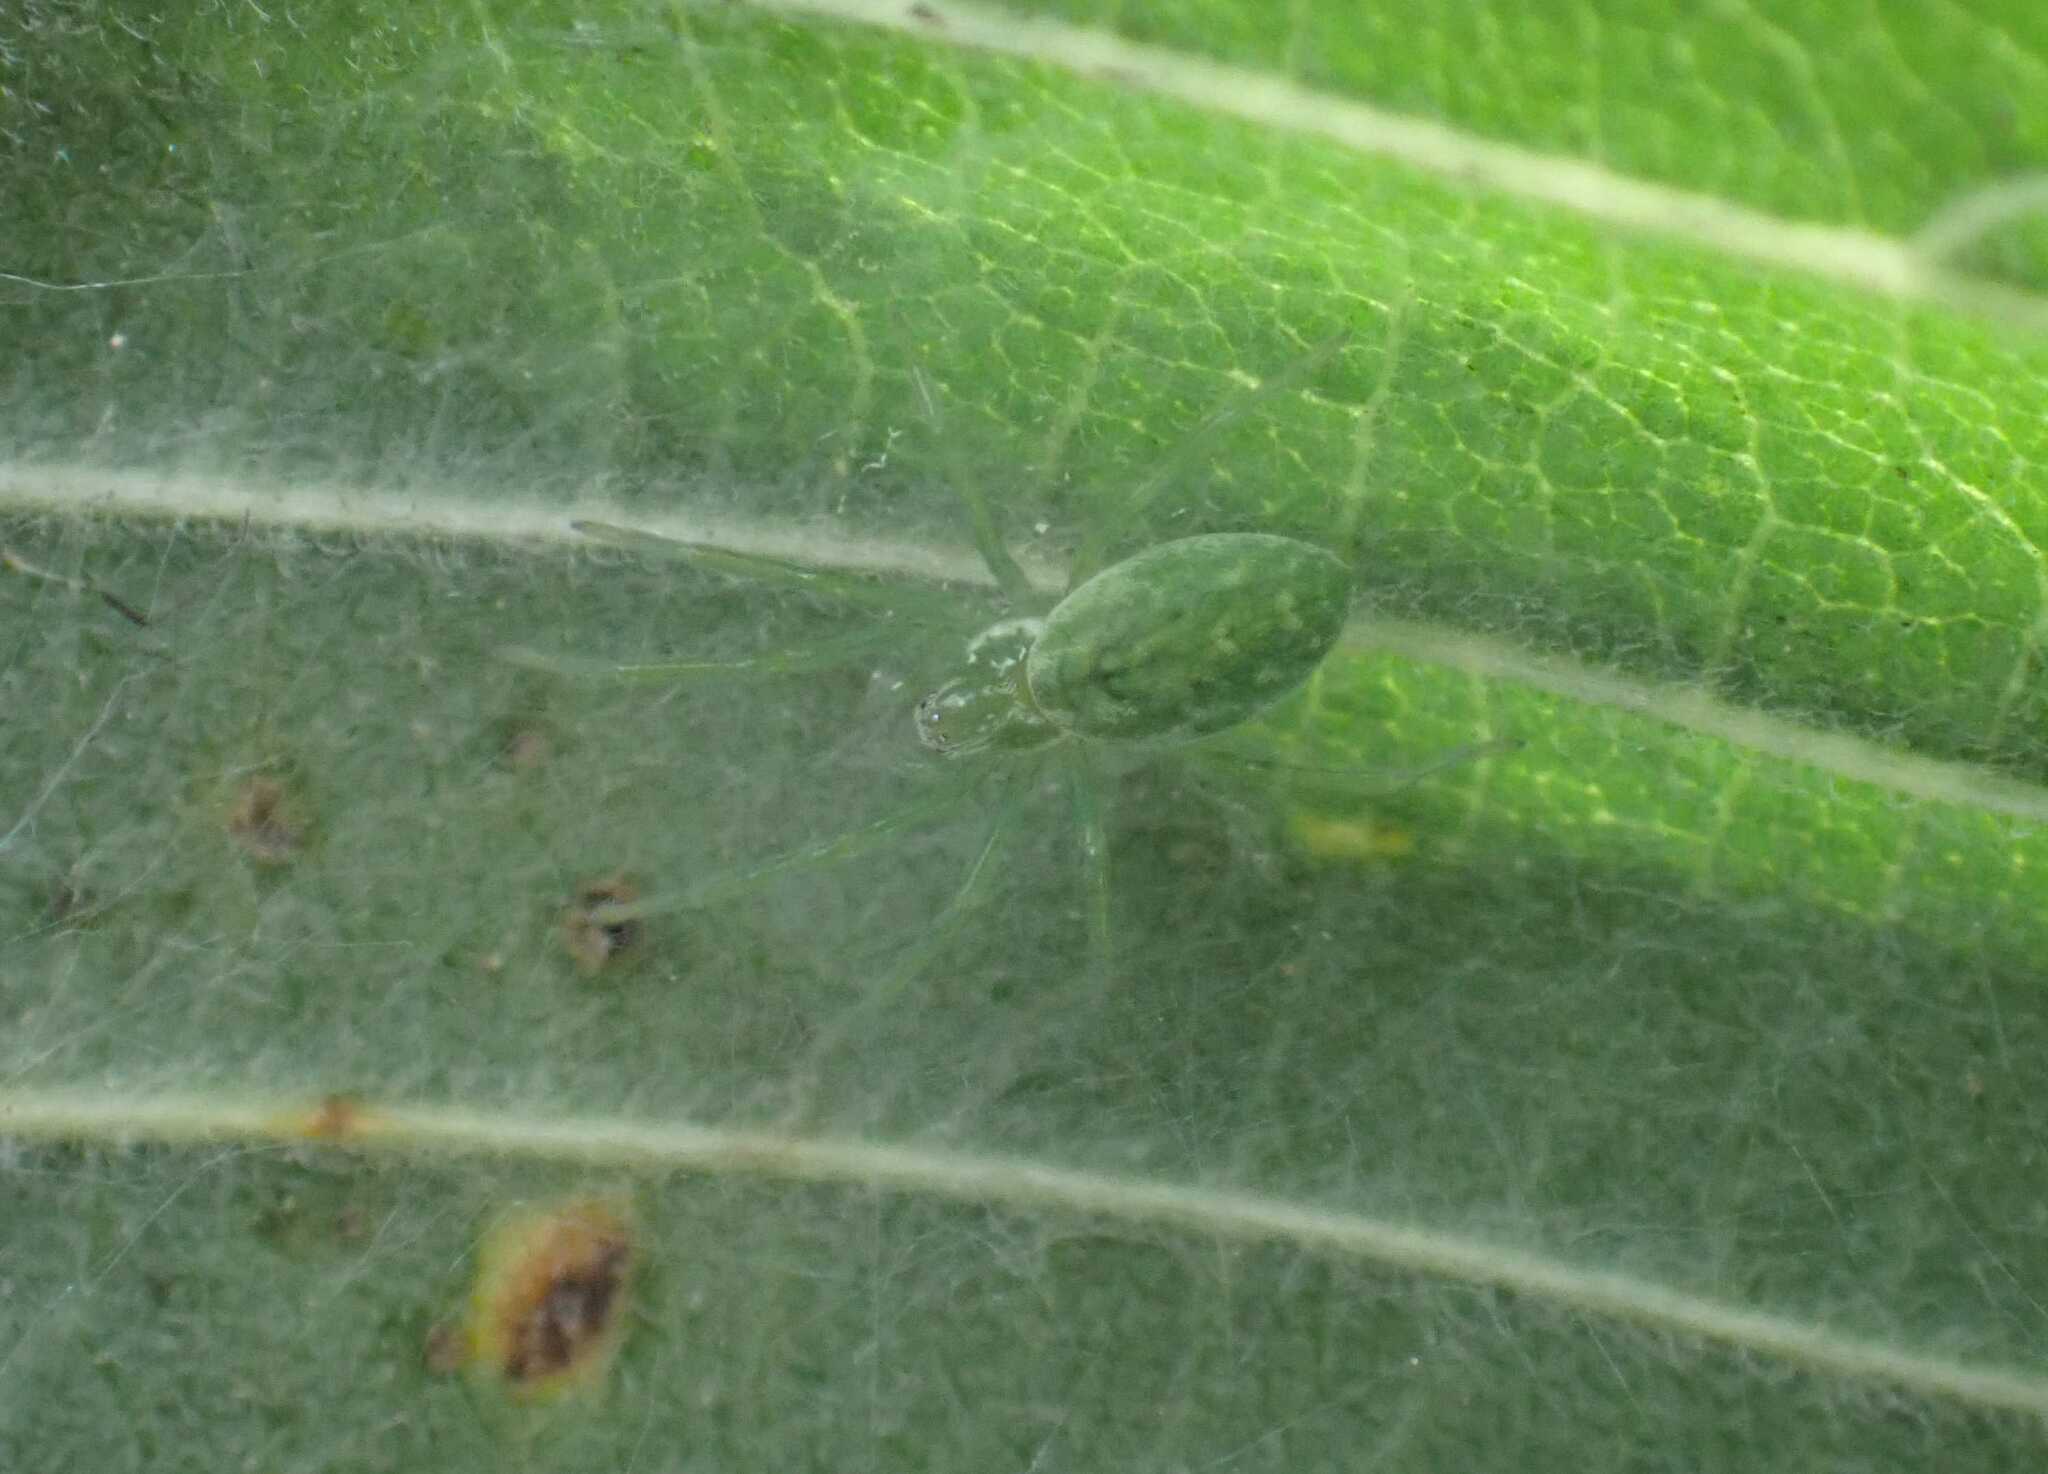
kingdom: Animalia
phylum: Arthropoda
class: Arachnida
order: Araneae
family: Dictynidae
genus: Nigma
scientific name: Nigma walckenaeri
